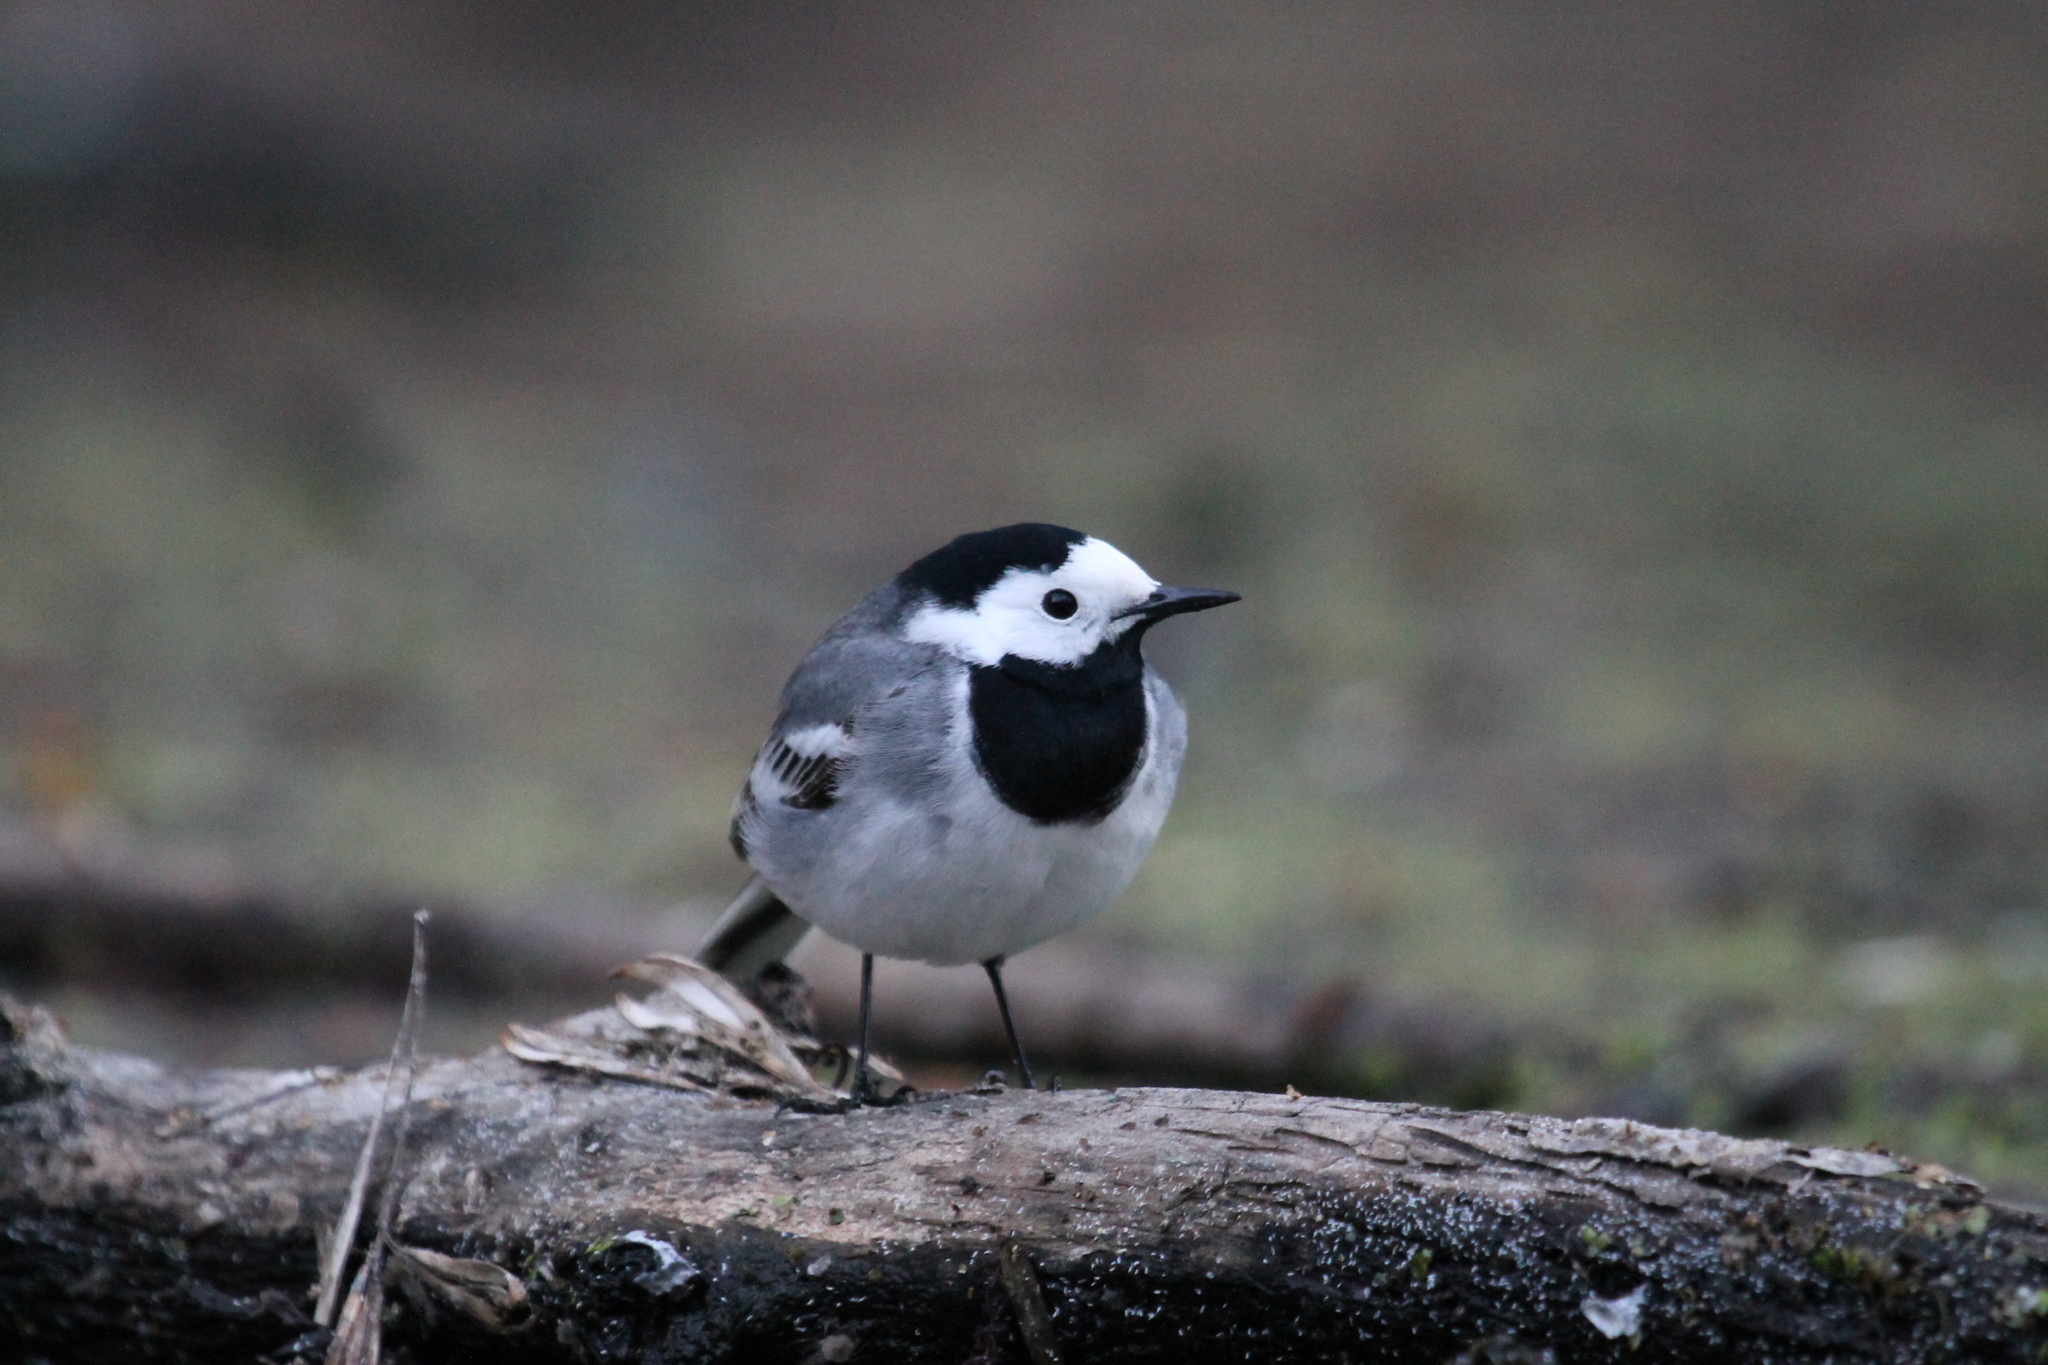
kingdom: Animalia
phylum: Chordata
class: Aves
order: Passeriformes
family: Motacillidae
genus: Motacilla
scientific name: Motacilla alba
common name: White wagtail
